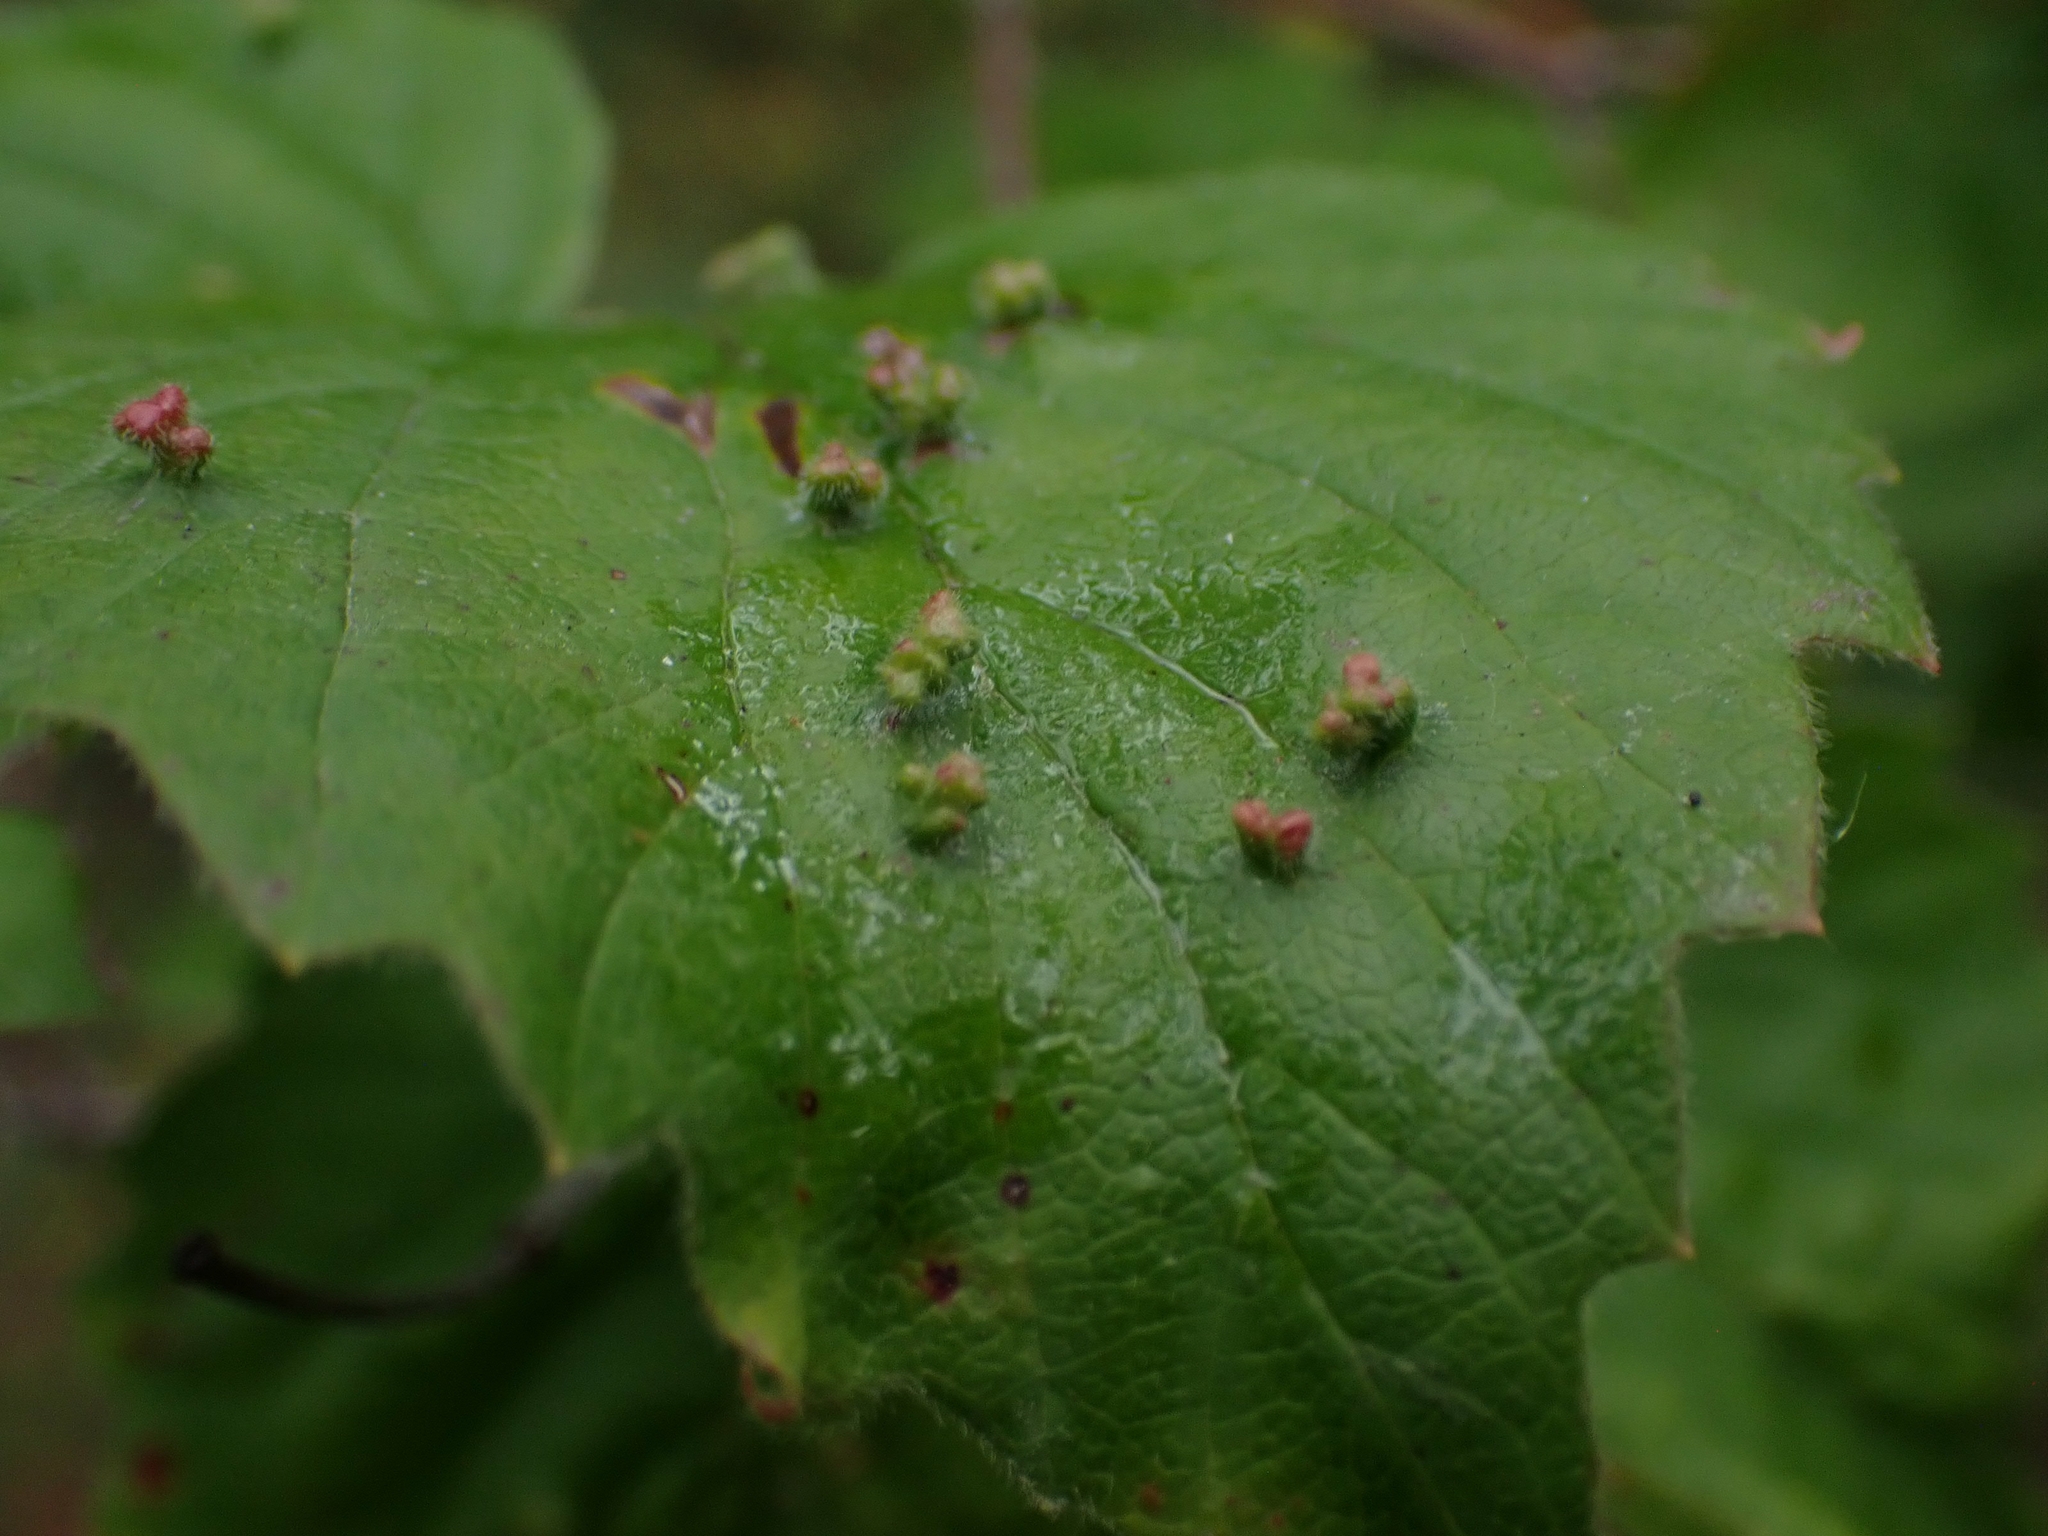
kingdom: Animalia
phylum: Arthropoda
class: Arachnida
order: Trombidiformes
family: Eriophyidae
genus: Eriophyes
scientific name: Eriophyes
